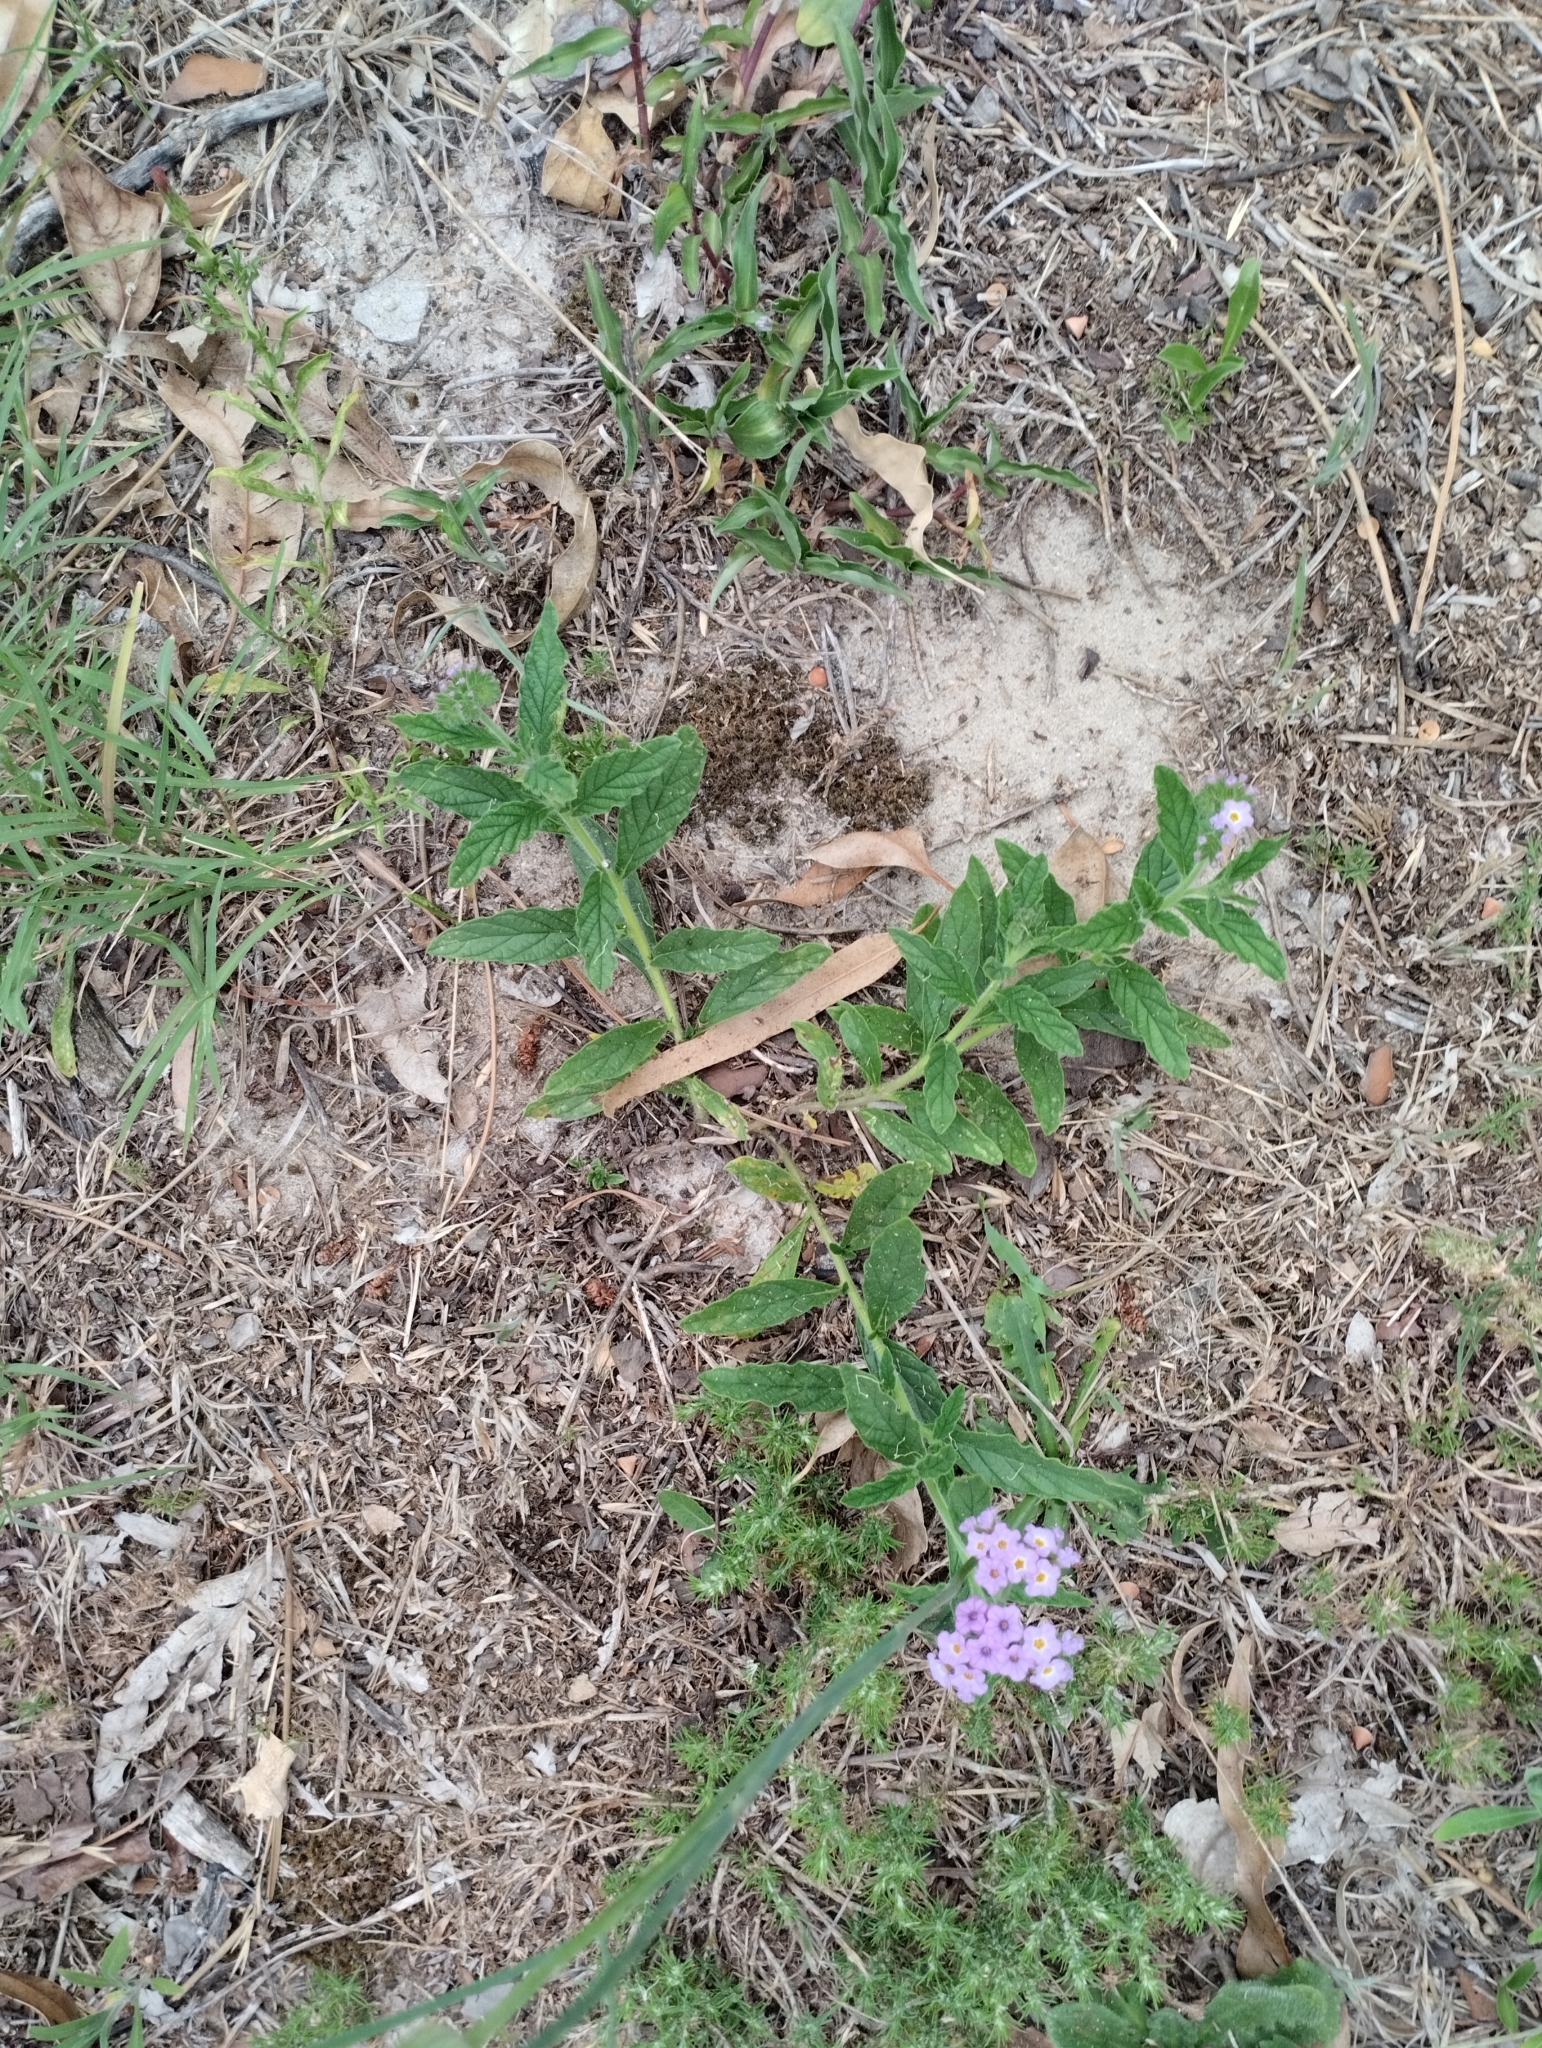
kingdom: Plantae
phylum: Tracheophyta
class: Magnoliopsida
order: Boraginales
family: Heliotropiaceae
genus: Heliotropium
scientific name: Heliotropium amplexicaule
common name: Clasping heliotrope
